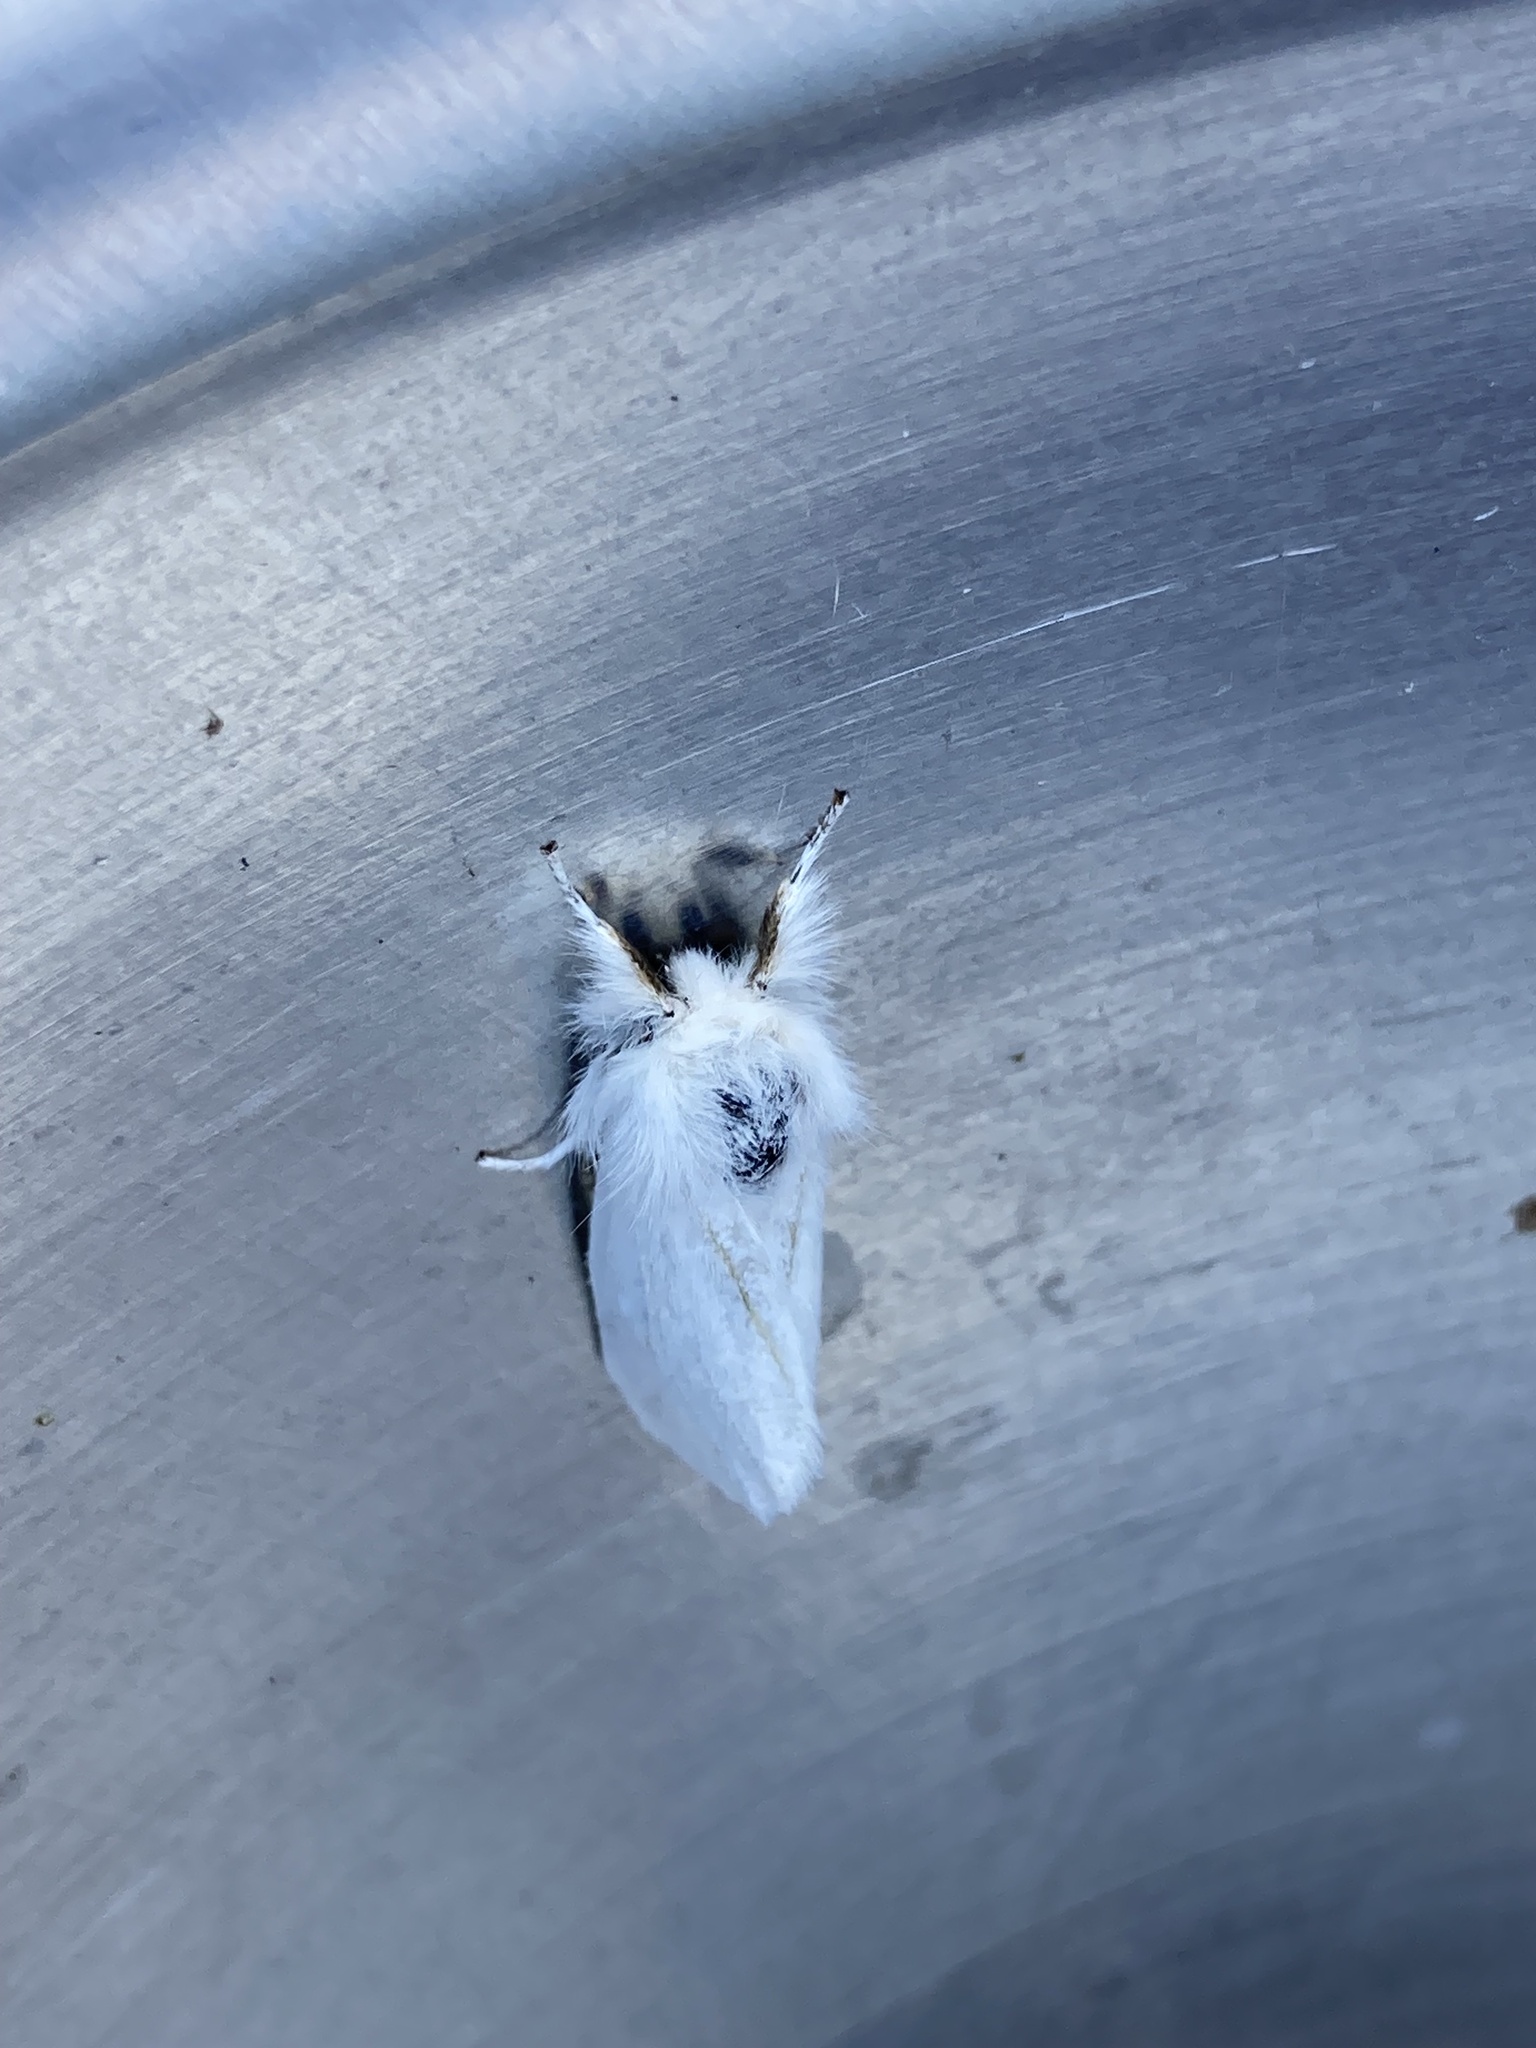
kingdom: Animalia
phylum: Arthropoda
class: Insecta
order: Lepidoptera
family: Erebidae
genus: Euproctis
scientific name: Euproctis chrysorrhoea
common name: Brown-tail
